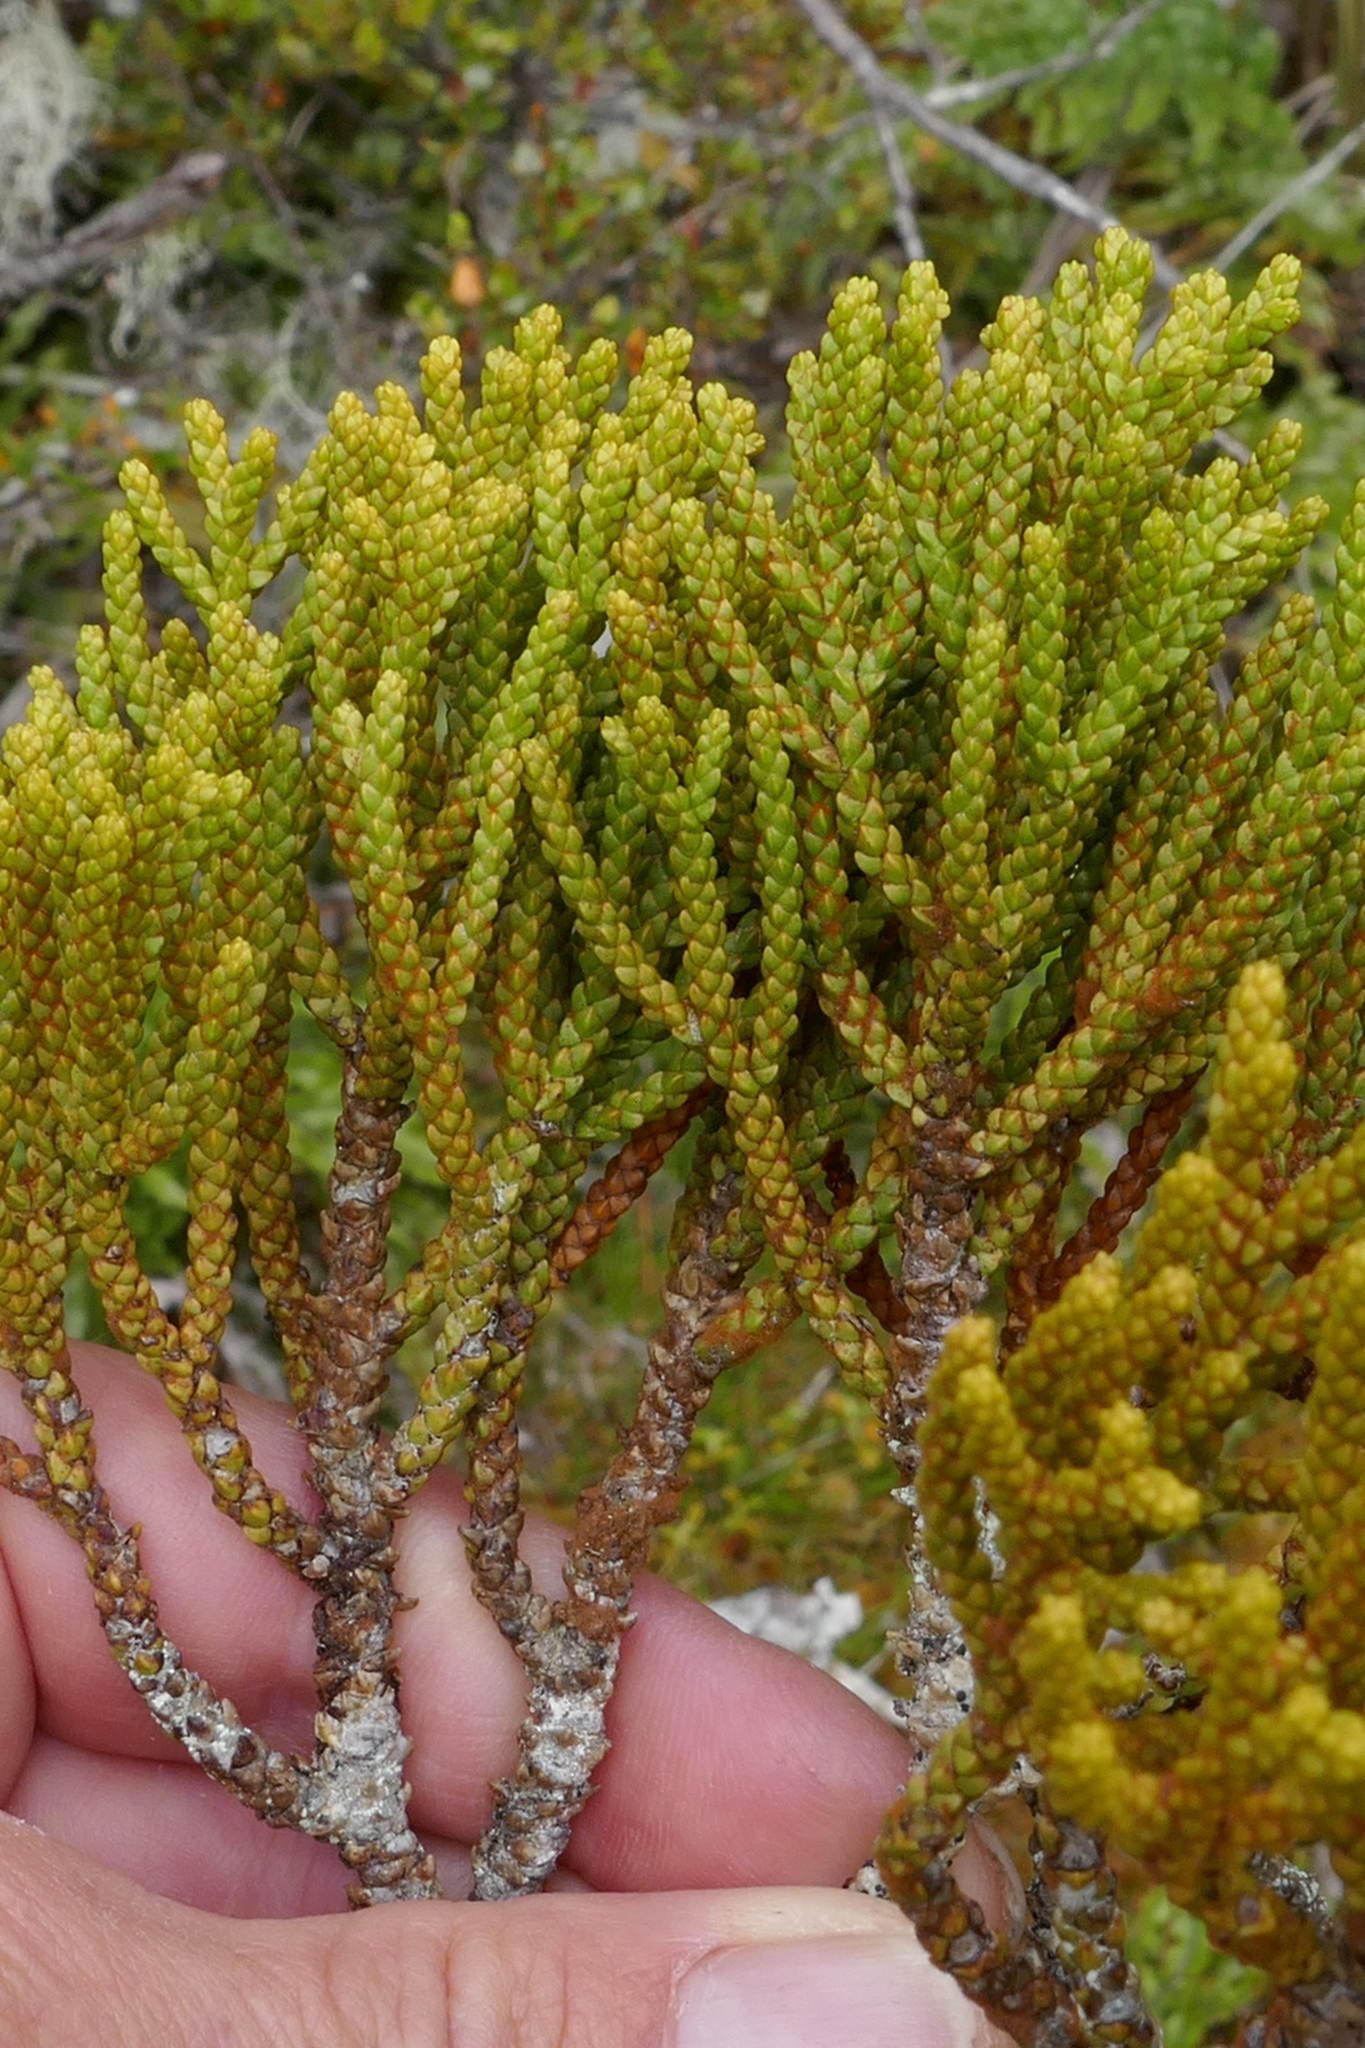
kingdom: Plantae
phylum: Tracheophyta
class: Pinopsida
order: Pinales
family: Podocarpaceae
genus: Halocarpus
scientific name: Halocarpus biformis
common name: Alpine tarwood
